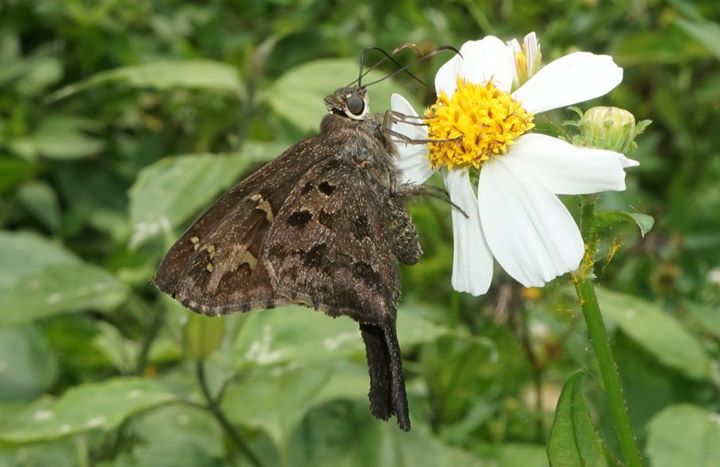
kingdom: Animalia
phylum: Arthropoda
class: Insecta
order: Lepidoptera
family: Hesperiidae
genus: Thorybes
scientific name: Thorybes
